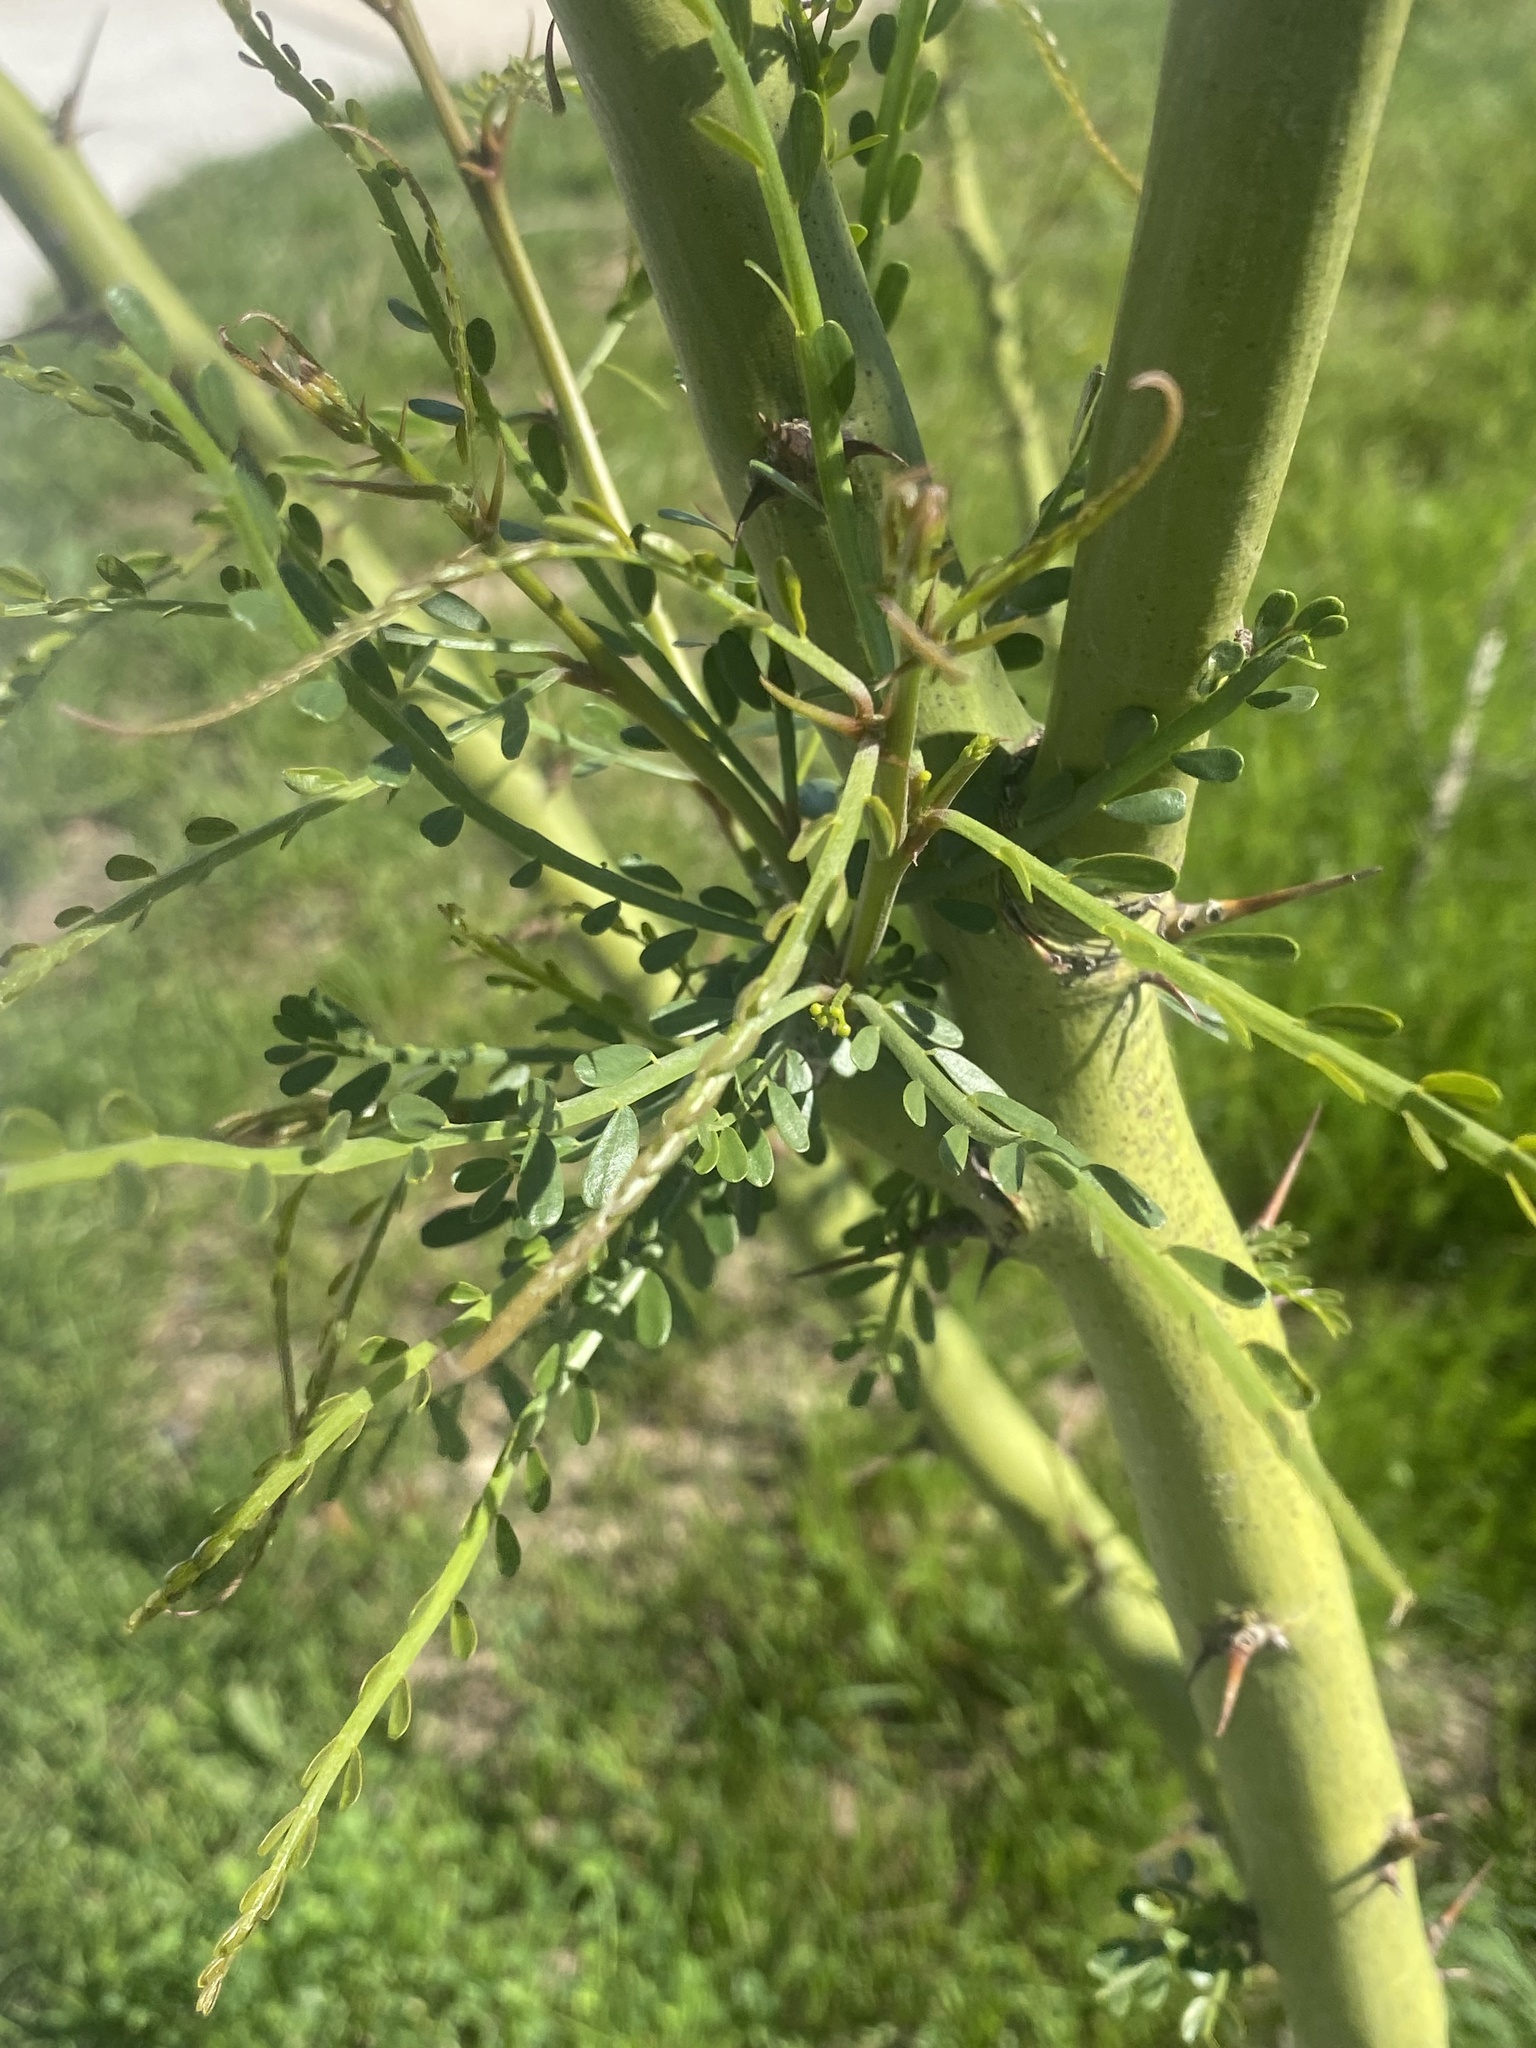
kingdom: Plantae
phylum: Tracheophyta
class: Magnoliopsida
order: Fabales
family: Fabaceae
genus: Parkinsonia
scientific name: Parkinsonia aculeata
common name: Jerusalem thorn
